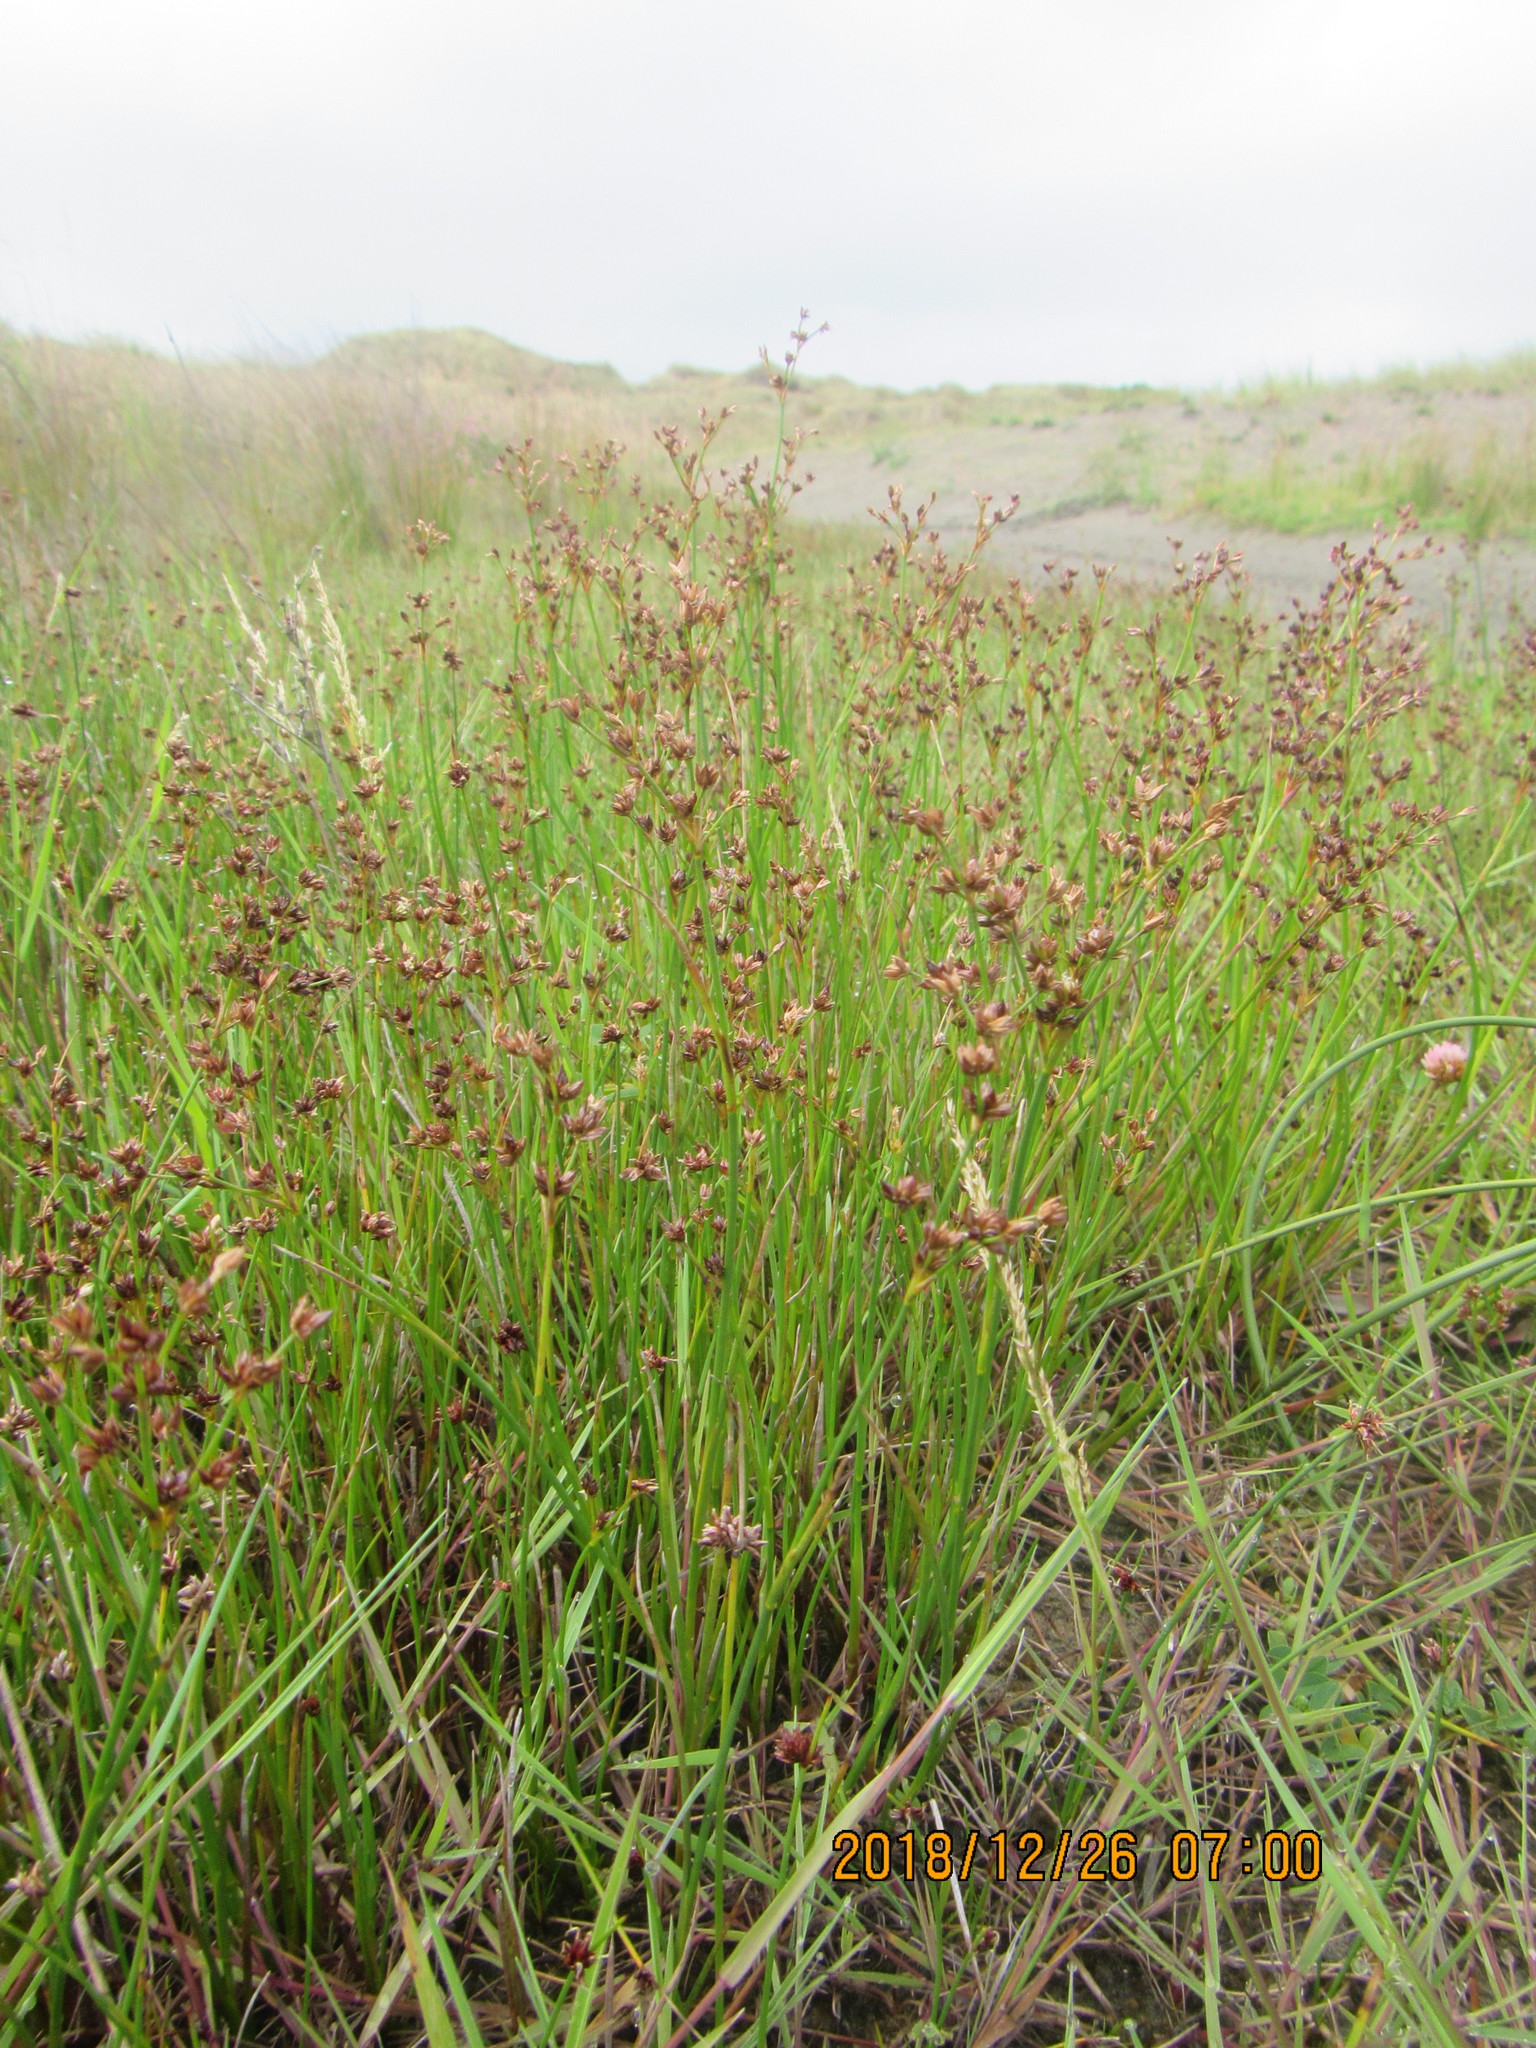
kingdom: Plantae
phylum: Tracheophyta
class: Liliopsida
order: Poales
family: Juncaceae
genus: Juncus
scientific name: Juncus articulatus
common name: Jointed rush
